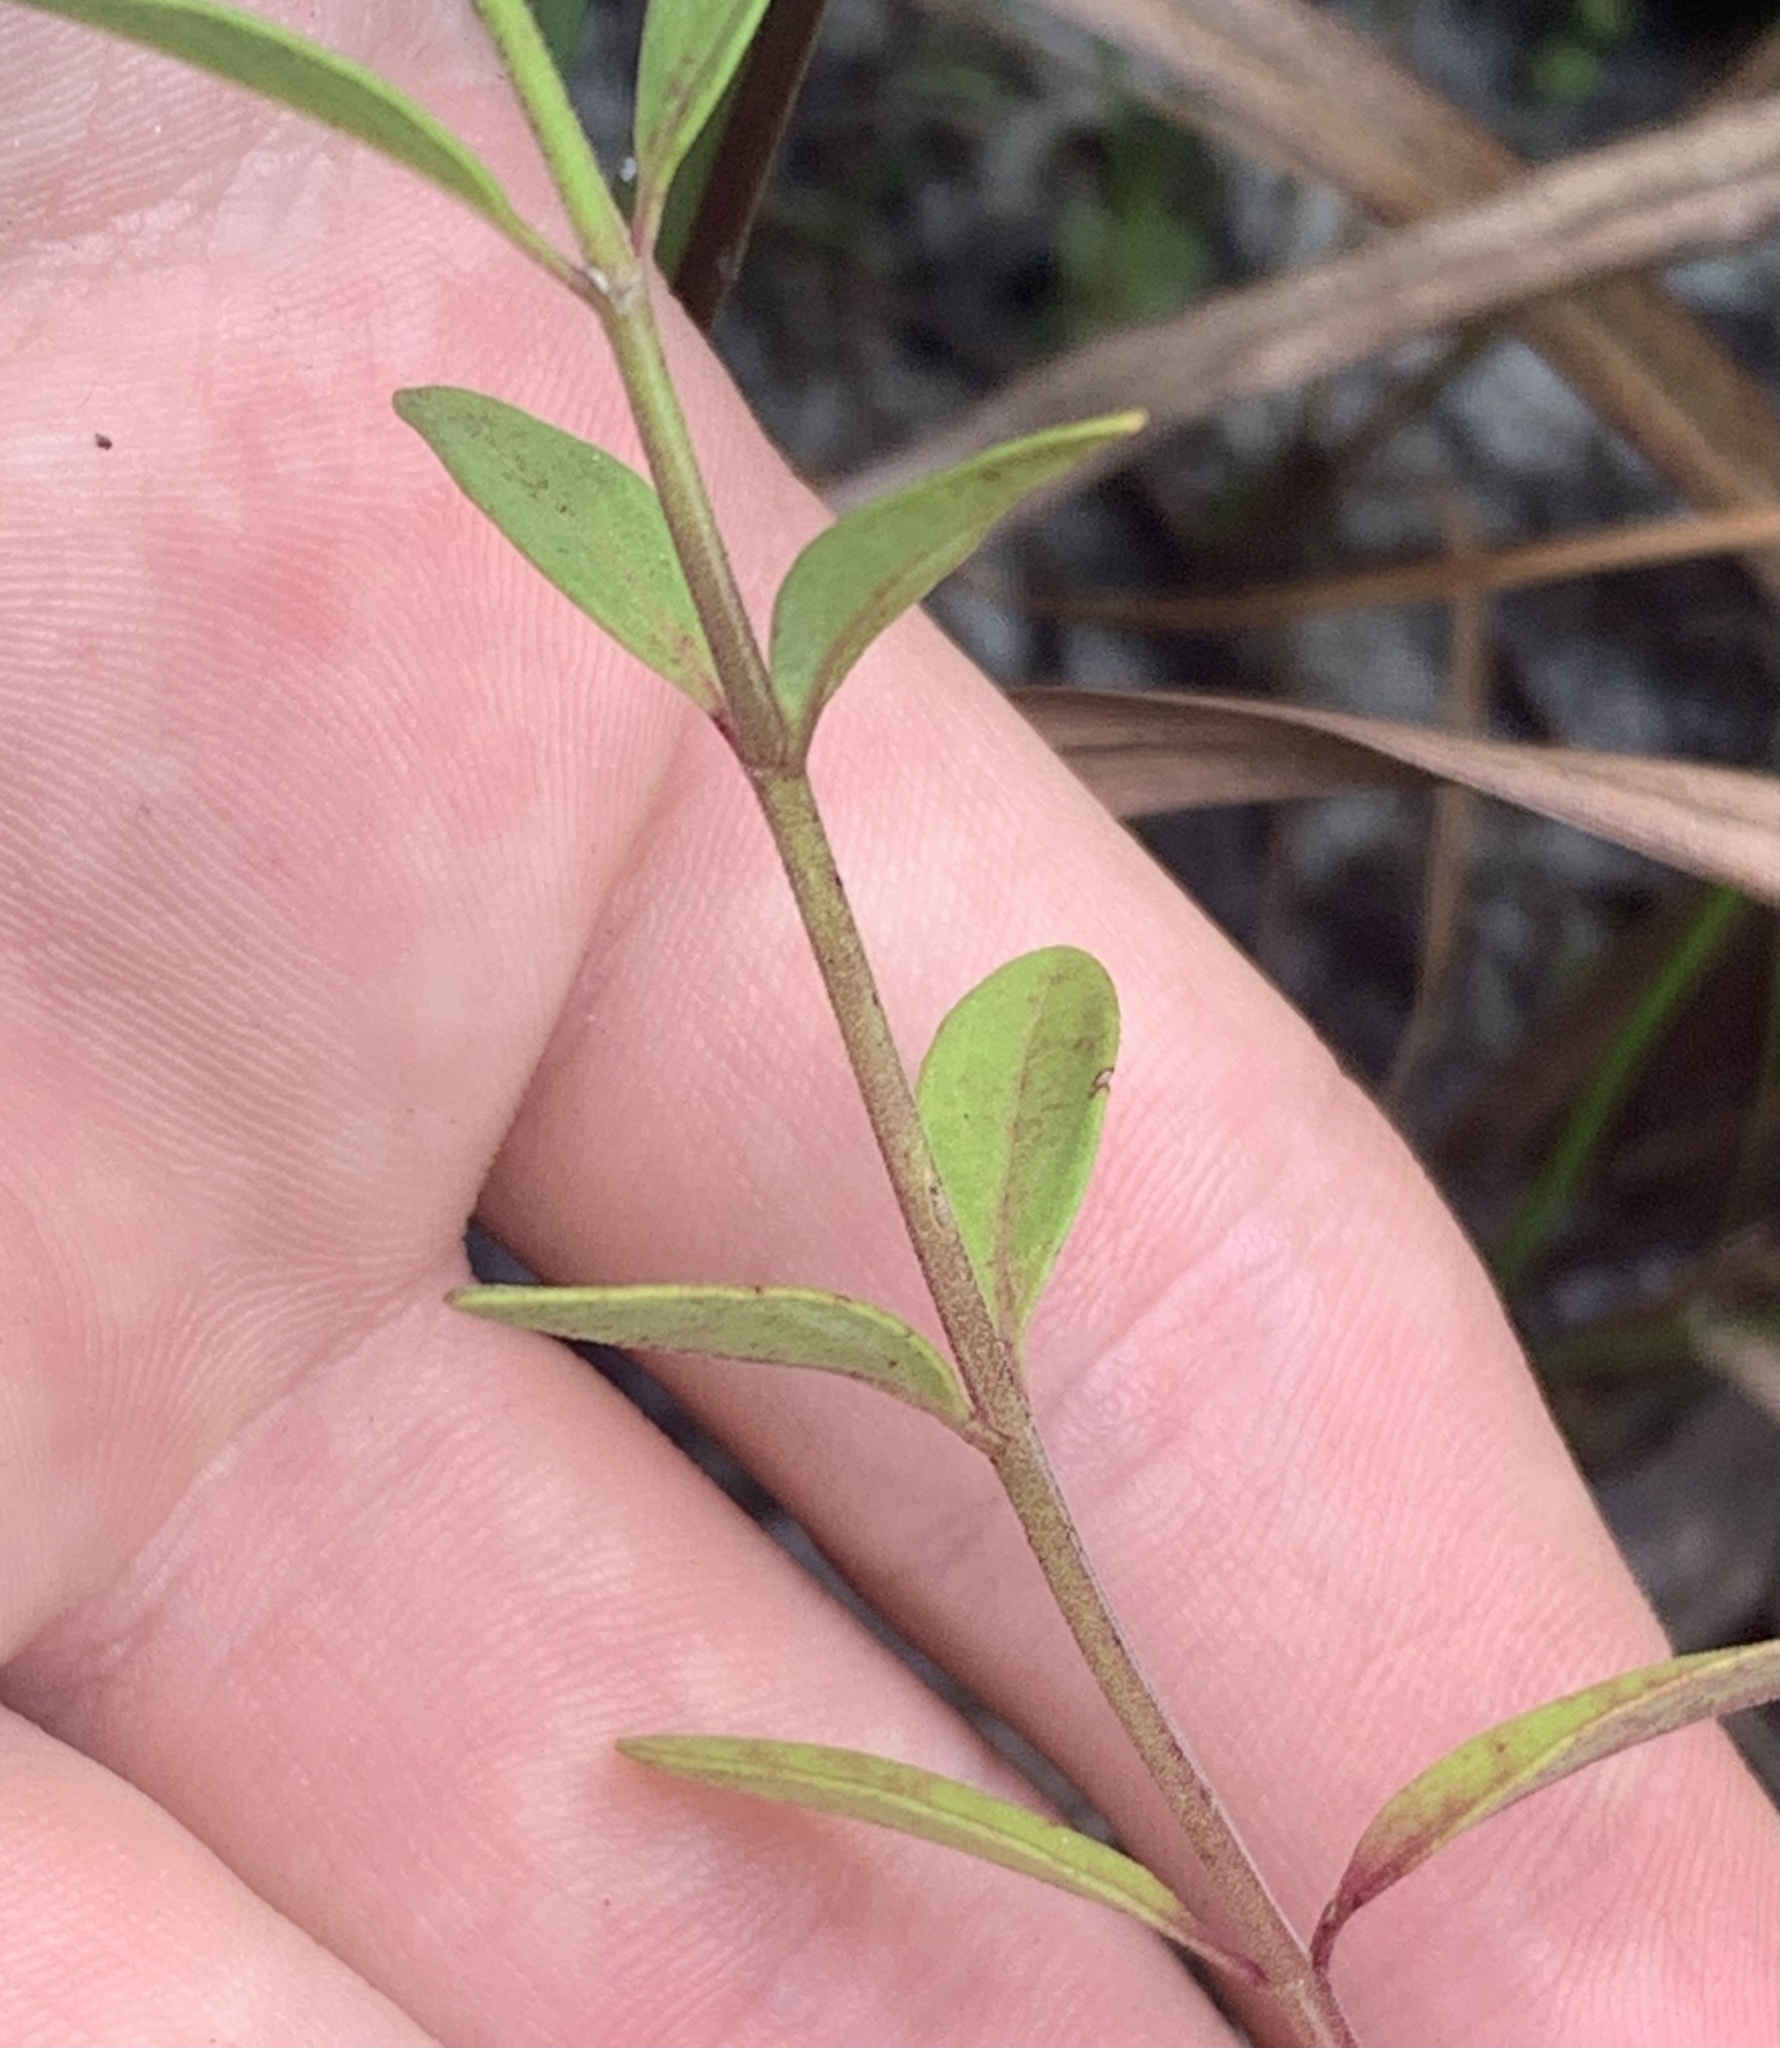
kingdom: Plantae
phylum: Tracheophyta
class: Magnoliopsida
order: Lamiales
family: Lamiaceae
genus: Trichostema
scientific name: Trichostema gracile
